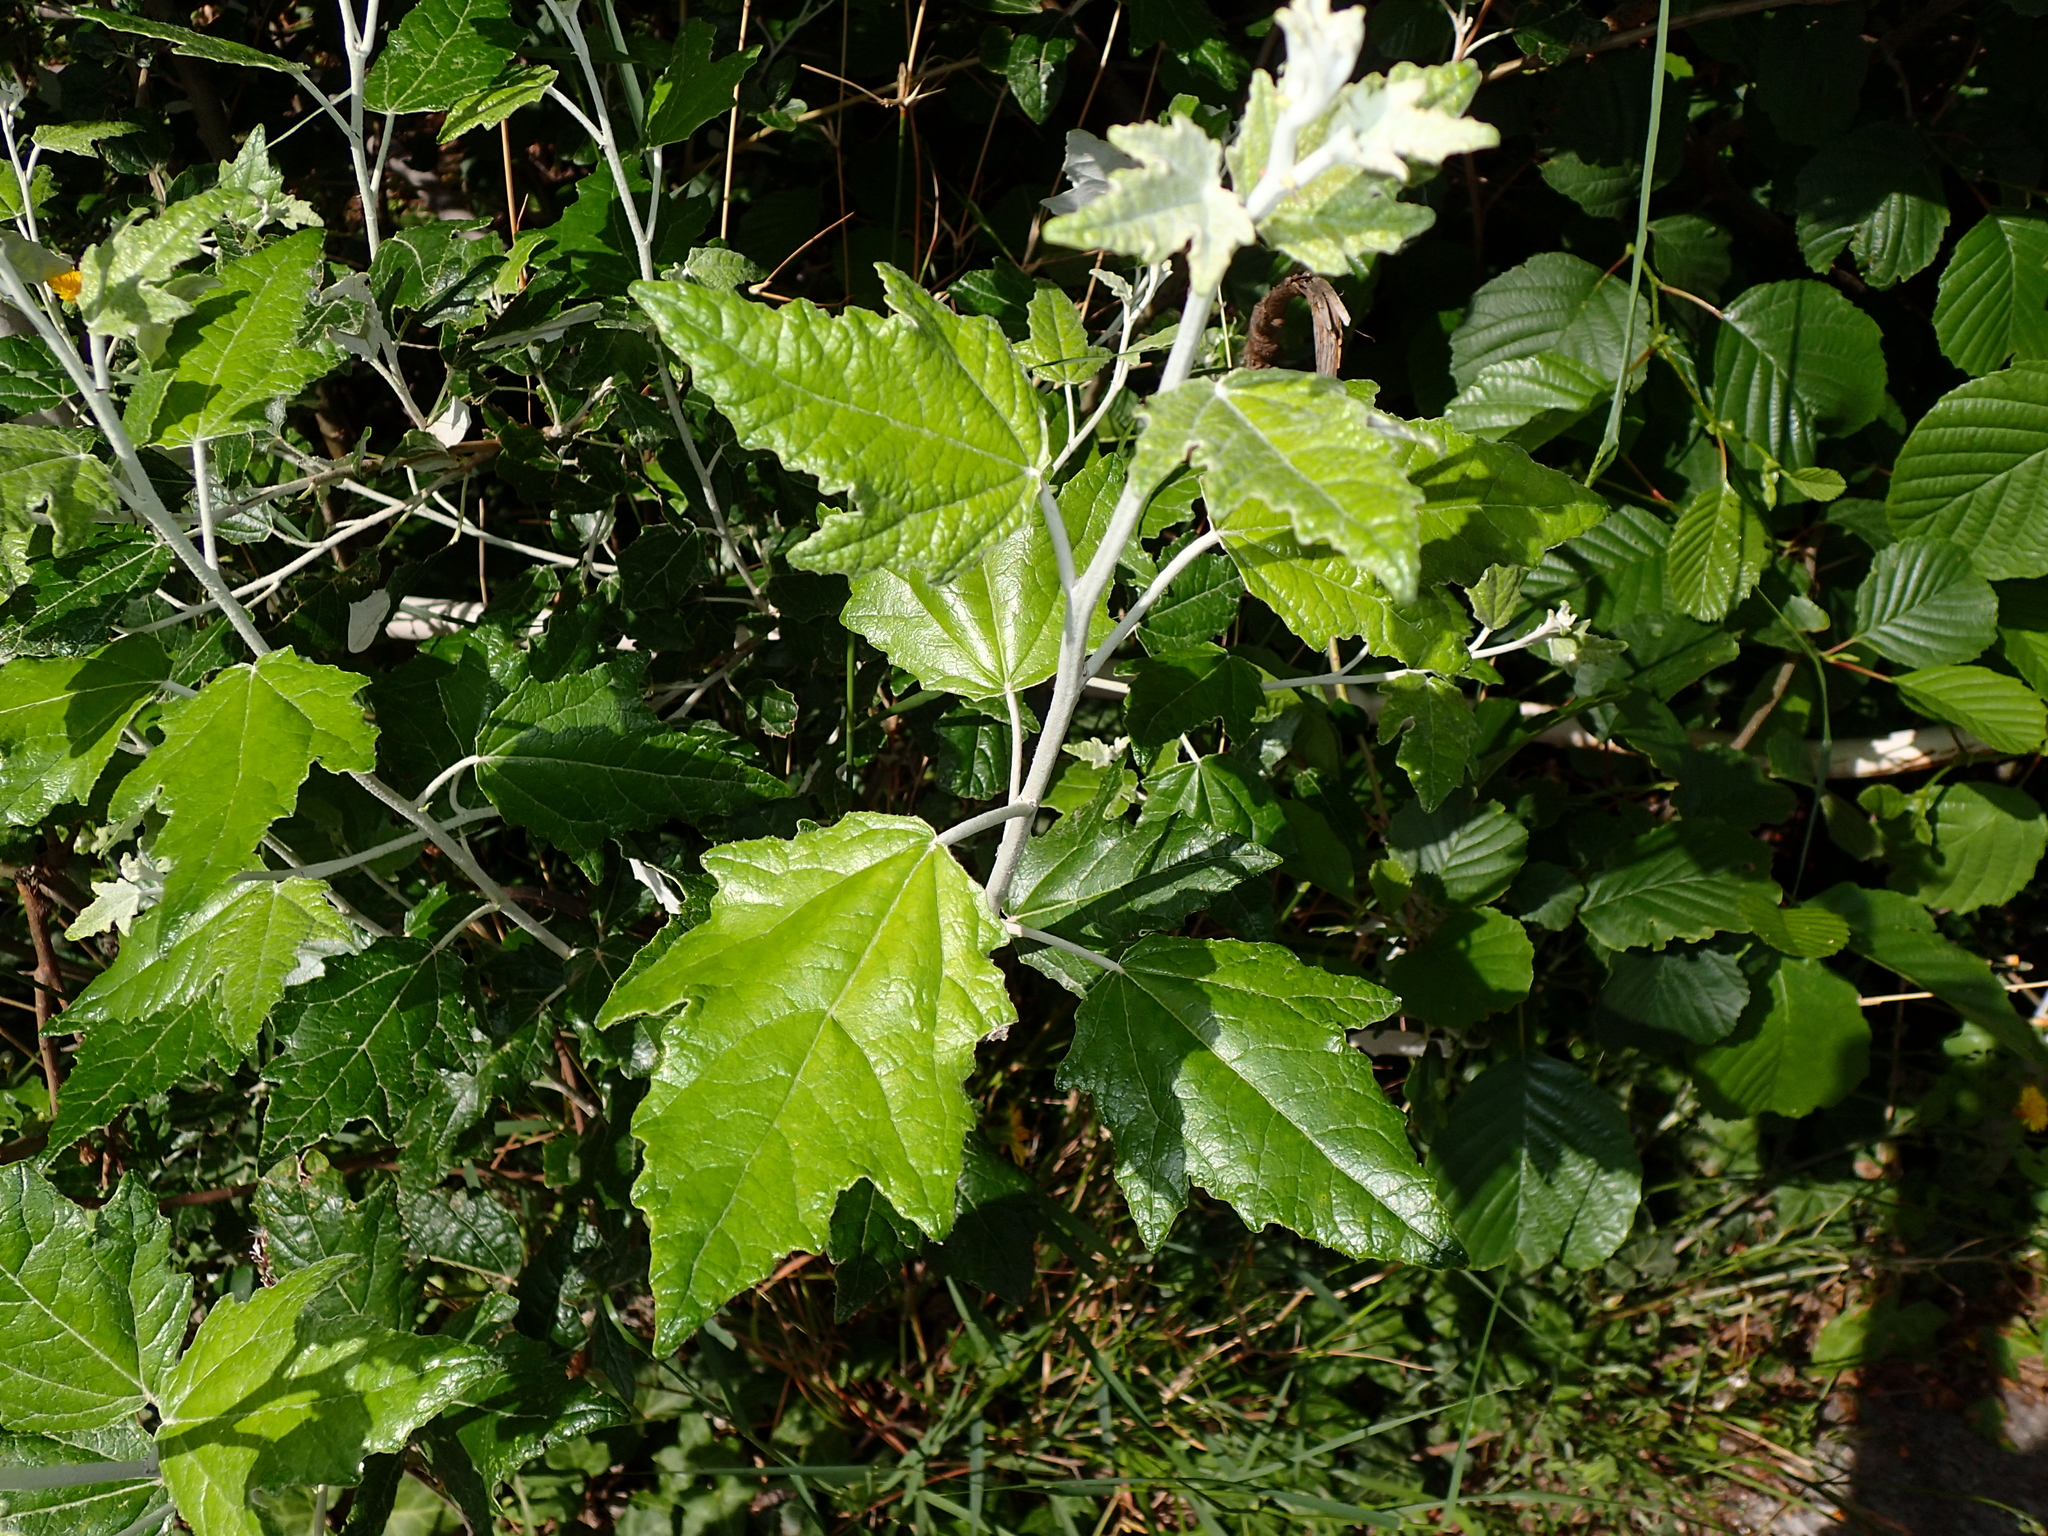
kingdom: Plantae
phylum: Tracheophyta
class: Magnoliopsida
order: Malpighiales
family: Salicaceae
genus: Populus
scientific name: Populus alba
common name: White poplar
